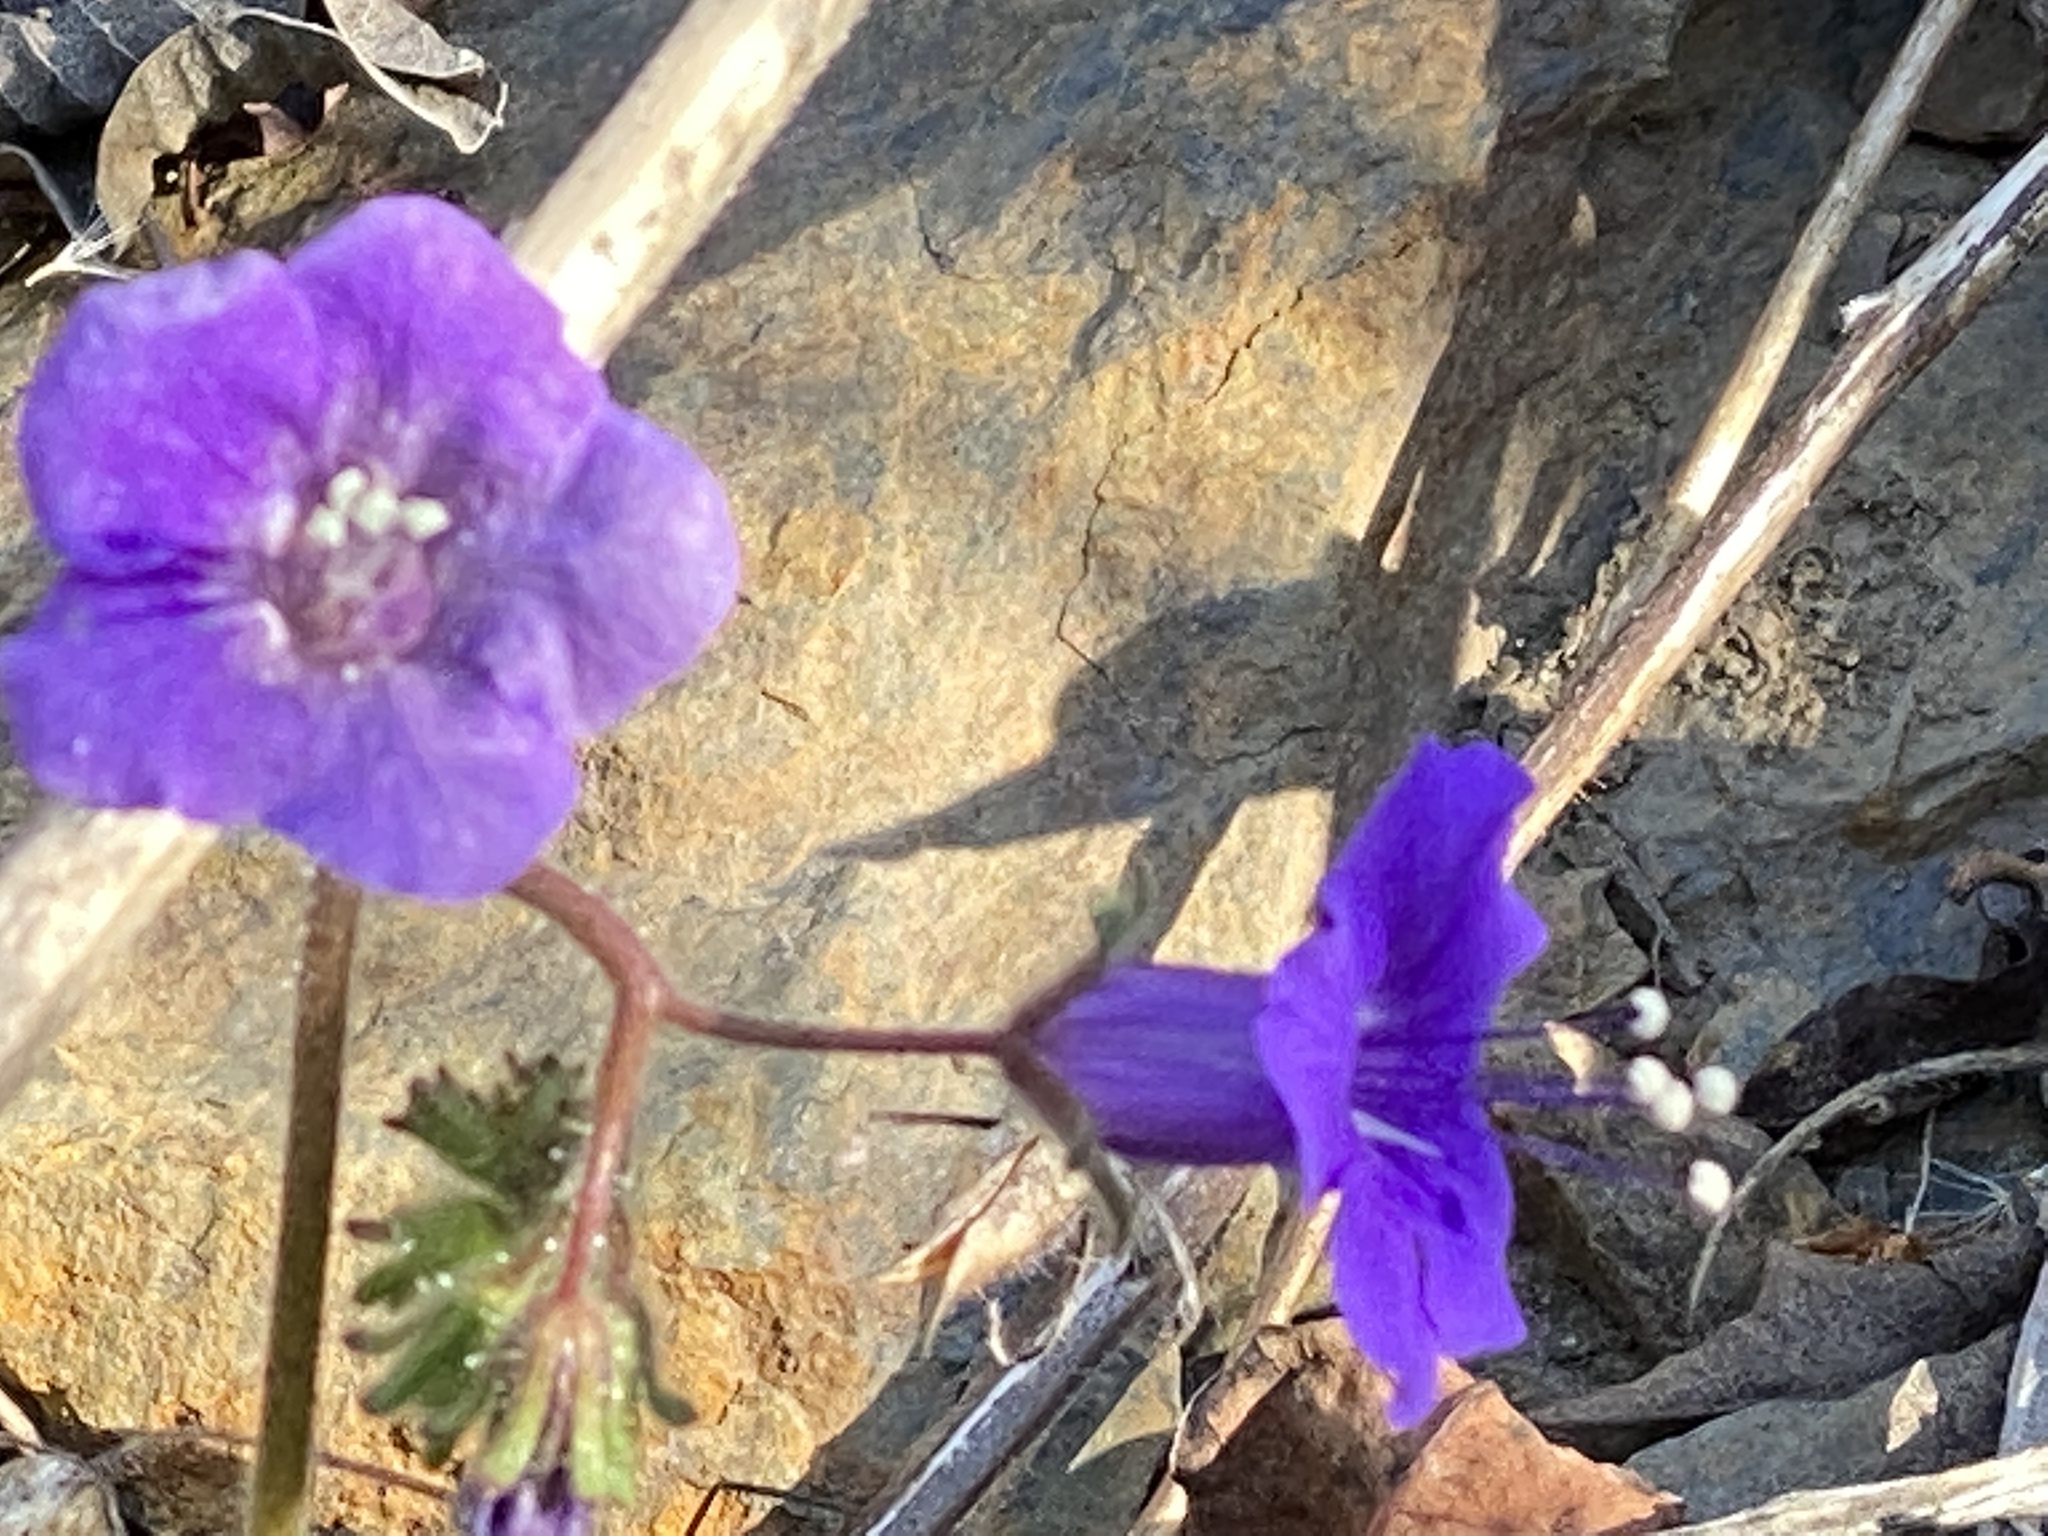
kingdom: Plantae
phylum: Tracheophyta
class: Magnoliopsida
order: Boraginales
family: Hydrophyllaceae
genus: Phacelia
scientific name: Phacelia minor
